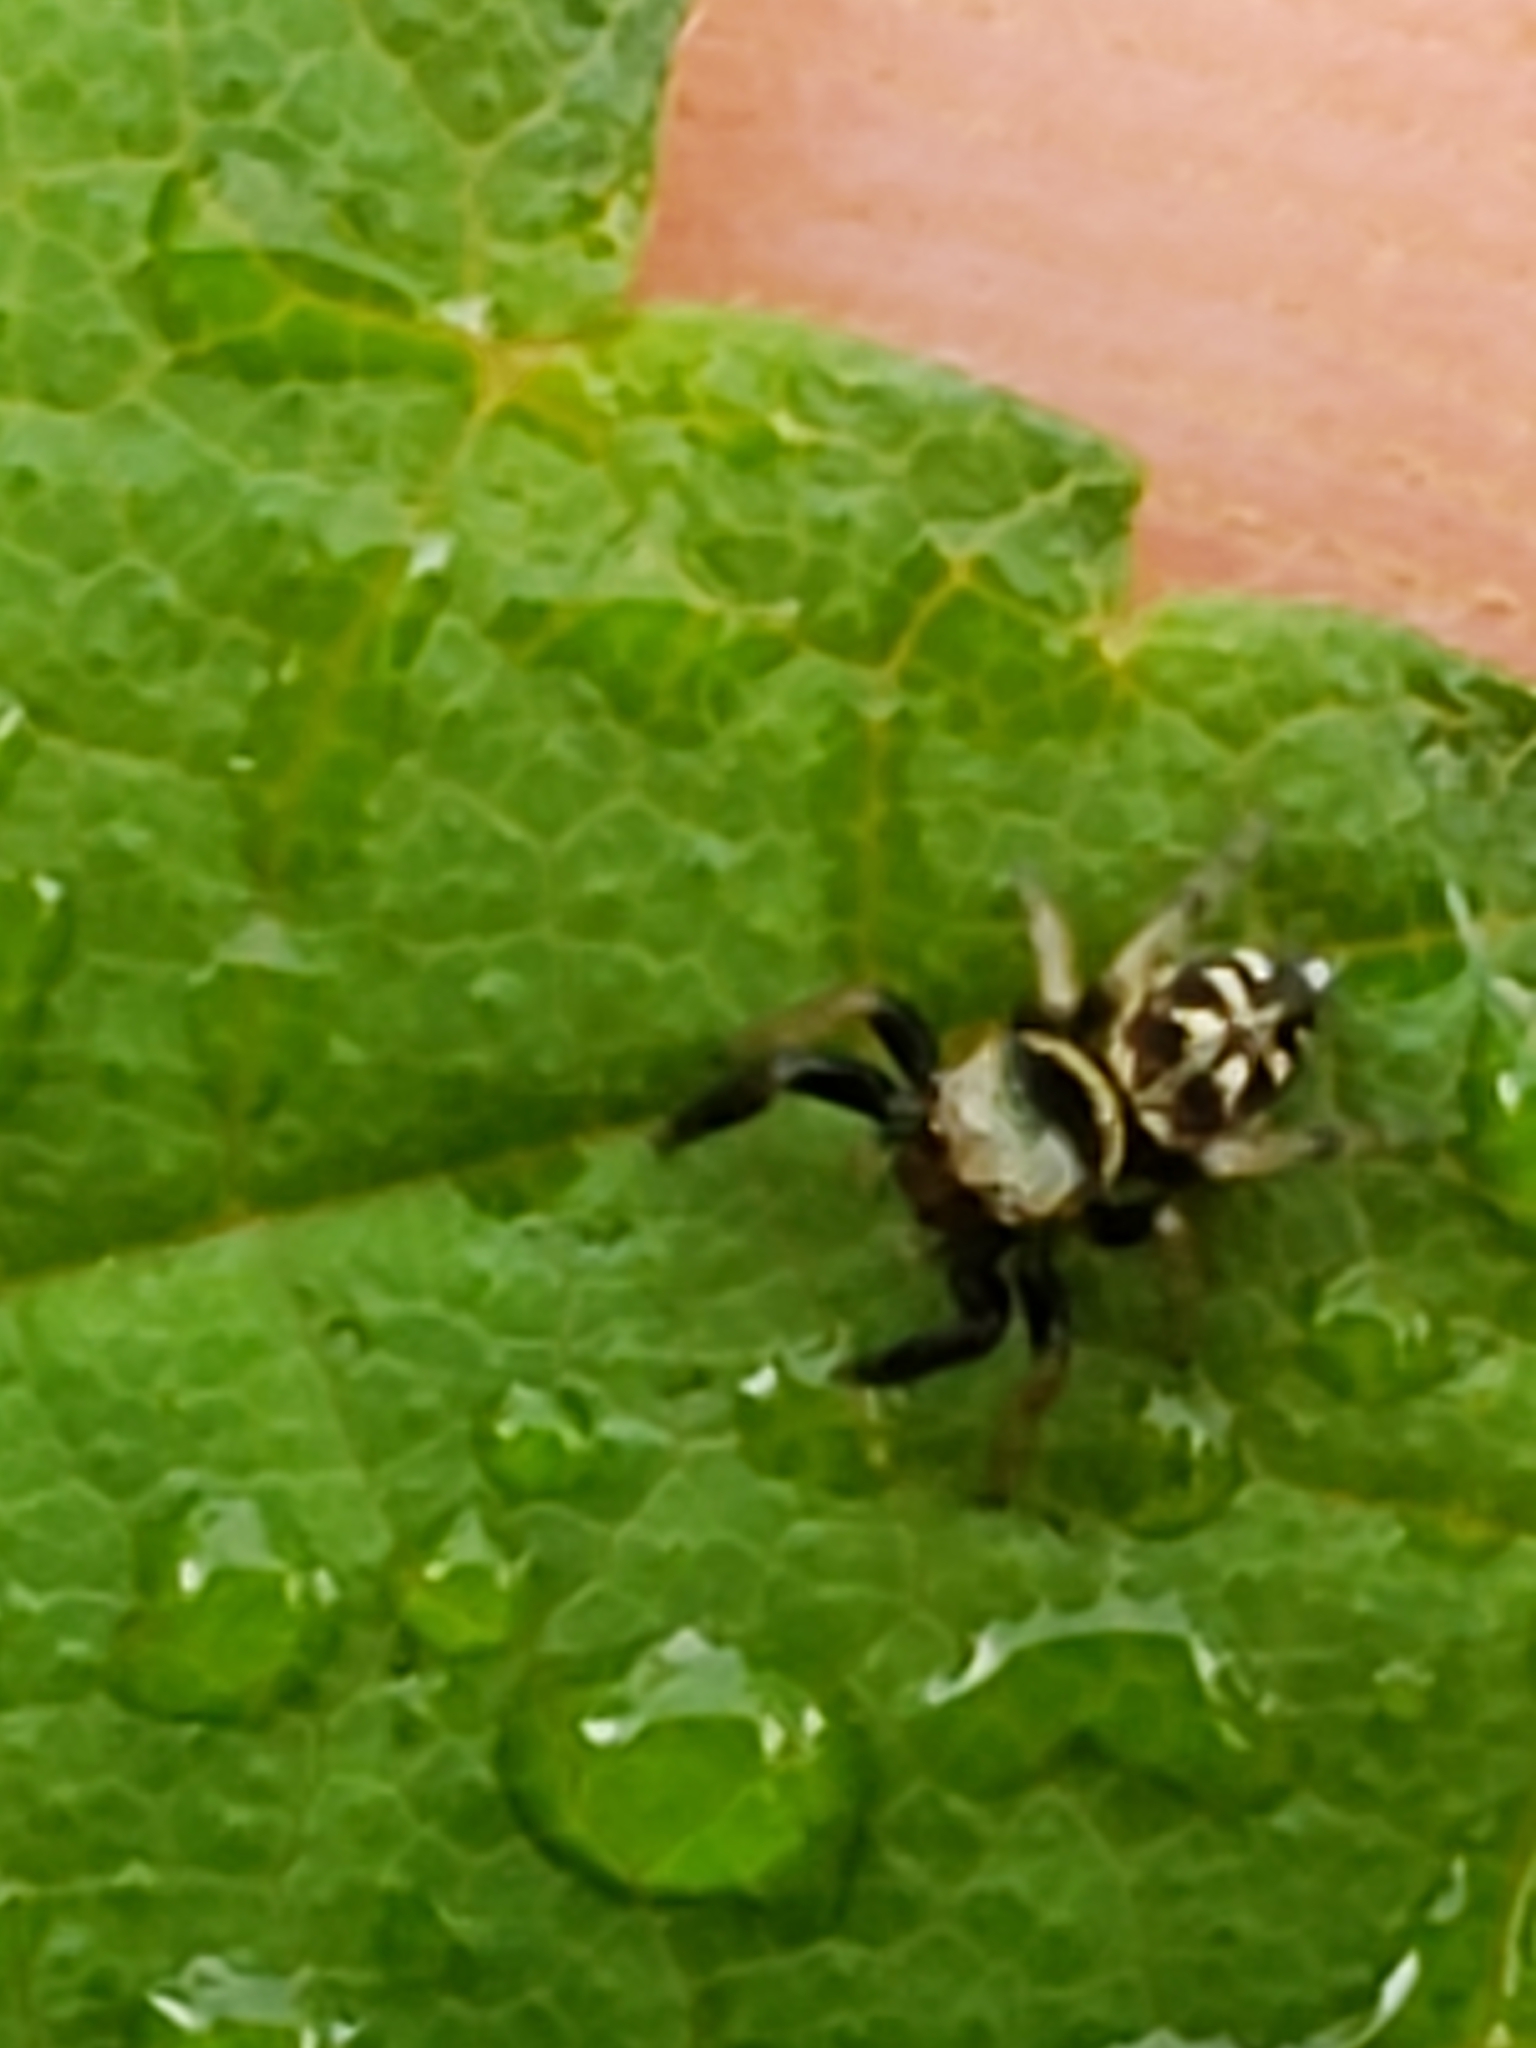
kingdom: Animalia
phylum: Arthropoda
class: Arachnida
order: Araneae
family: Salticidae
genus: Paraphidippus
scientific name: Paraphidippus aurantius
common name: Jumping spiders
